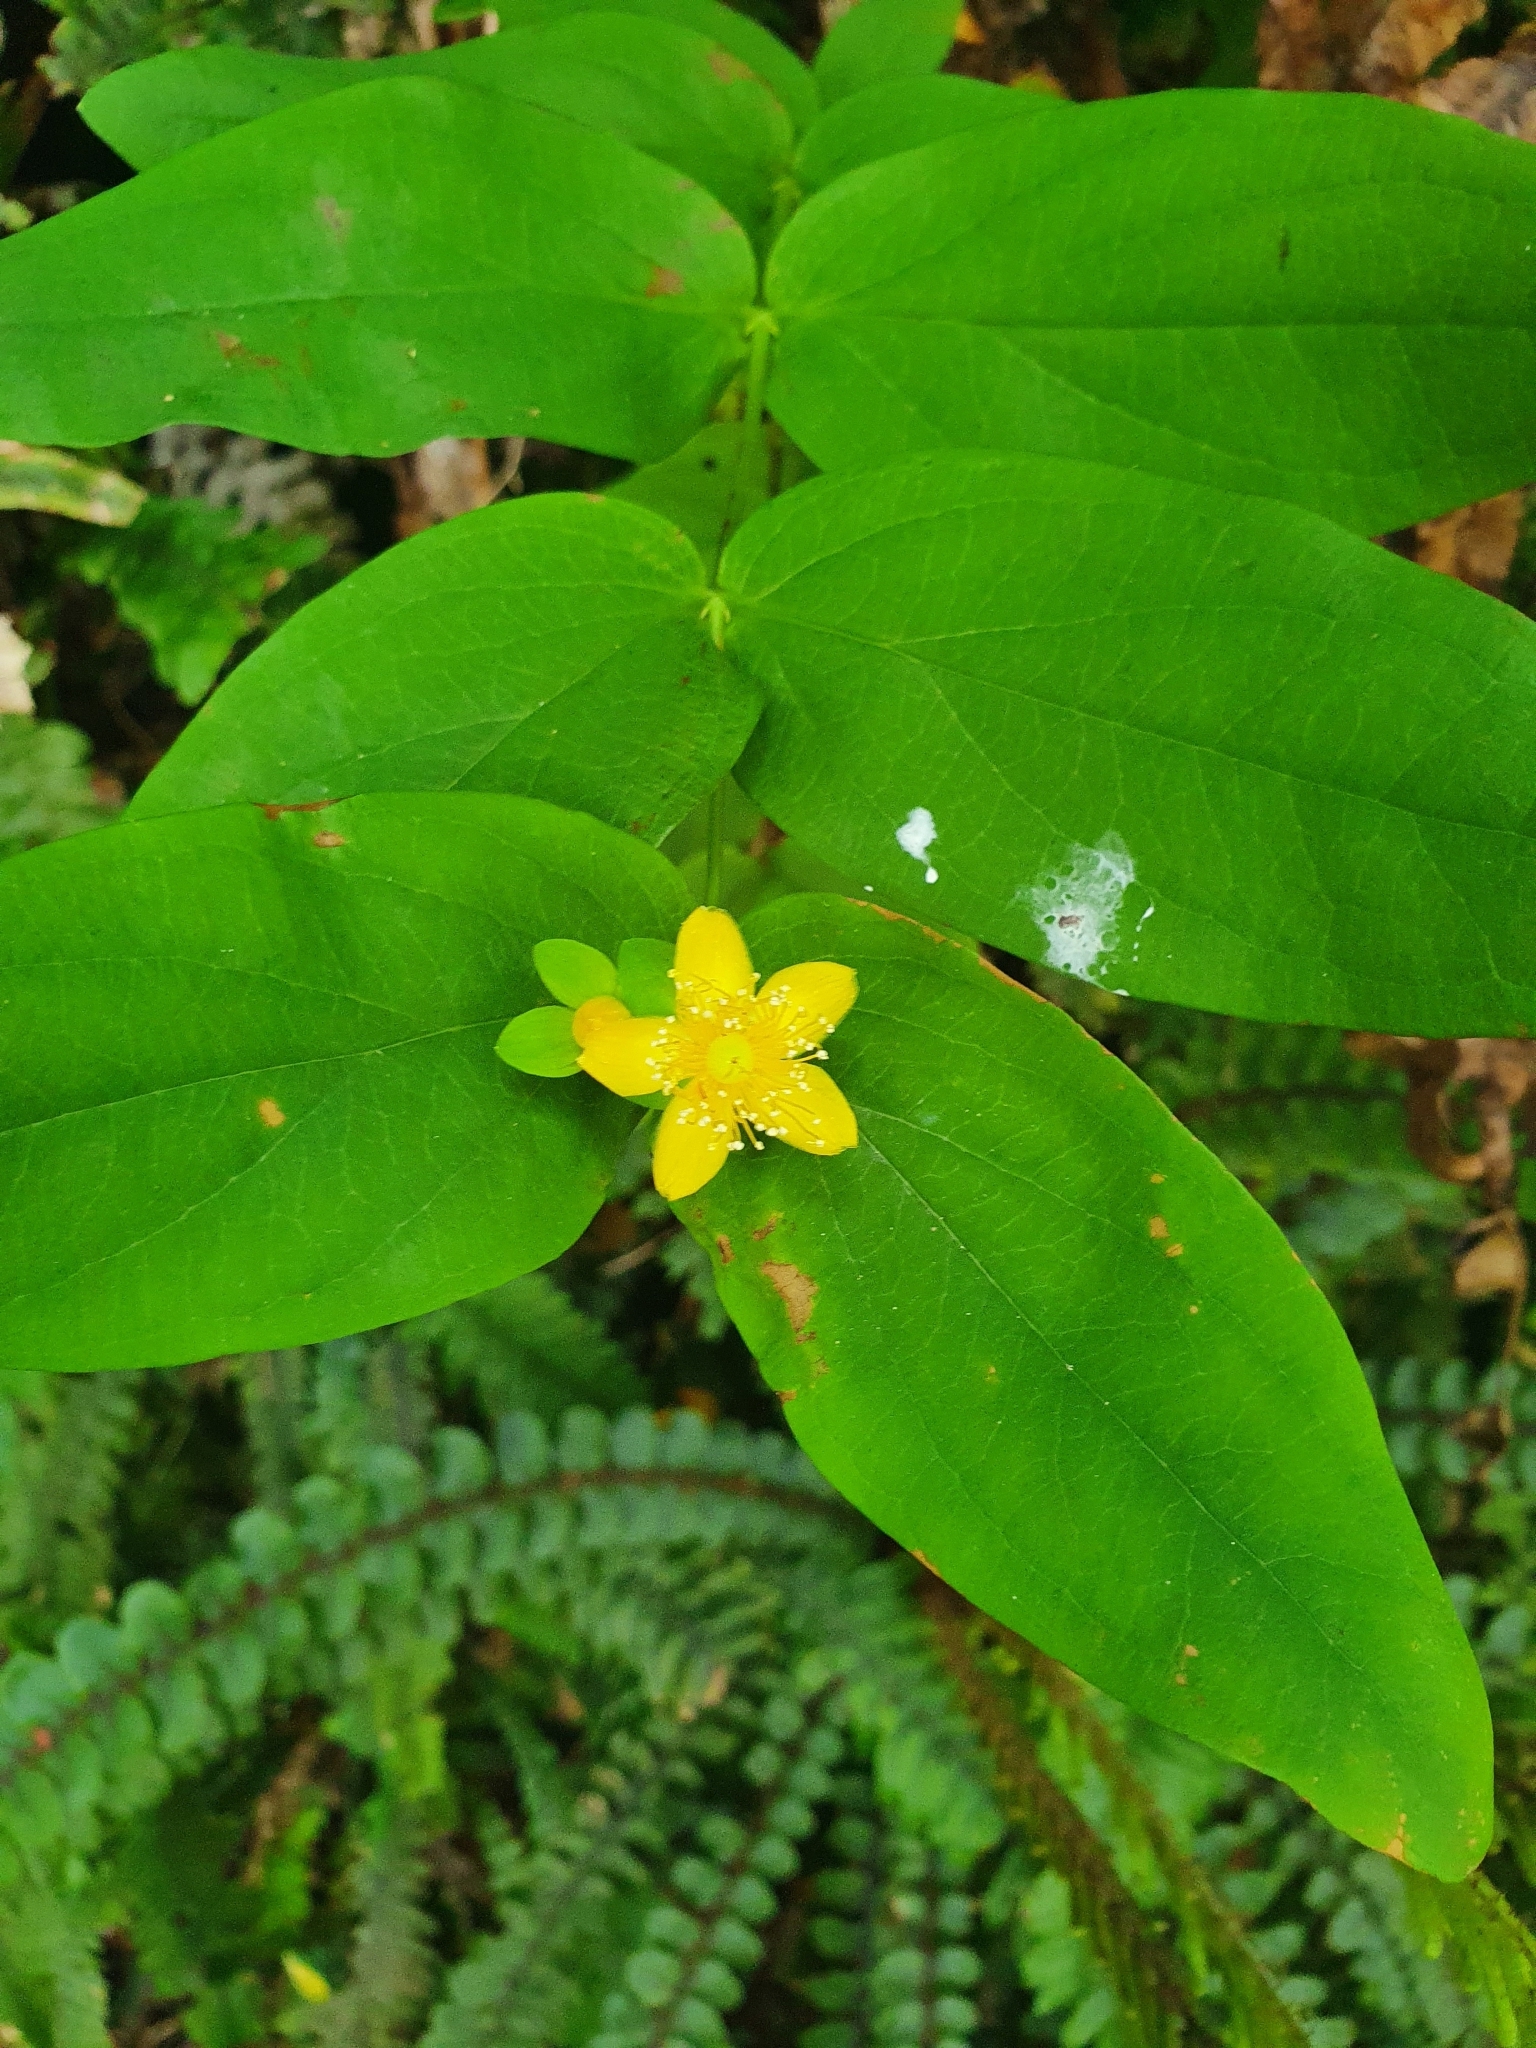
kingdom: Plantae
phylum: Tracheophyta
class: Magnoliopsida
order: Malpighiales
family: Hypericaceae
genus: Hypericum
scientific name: Hypericum androsaemum
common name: Sweet-amber
